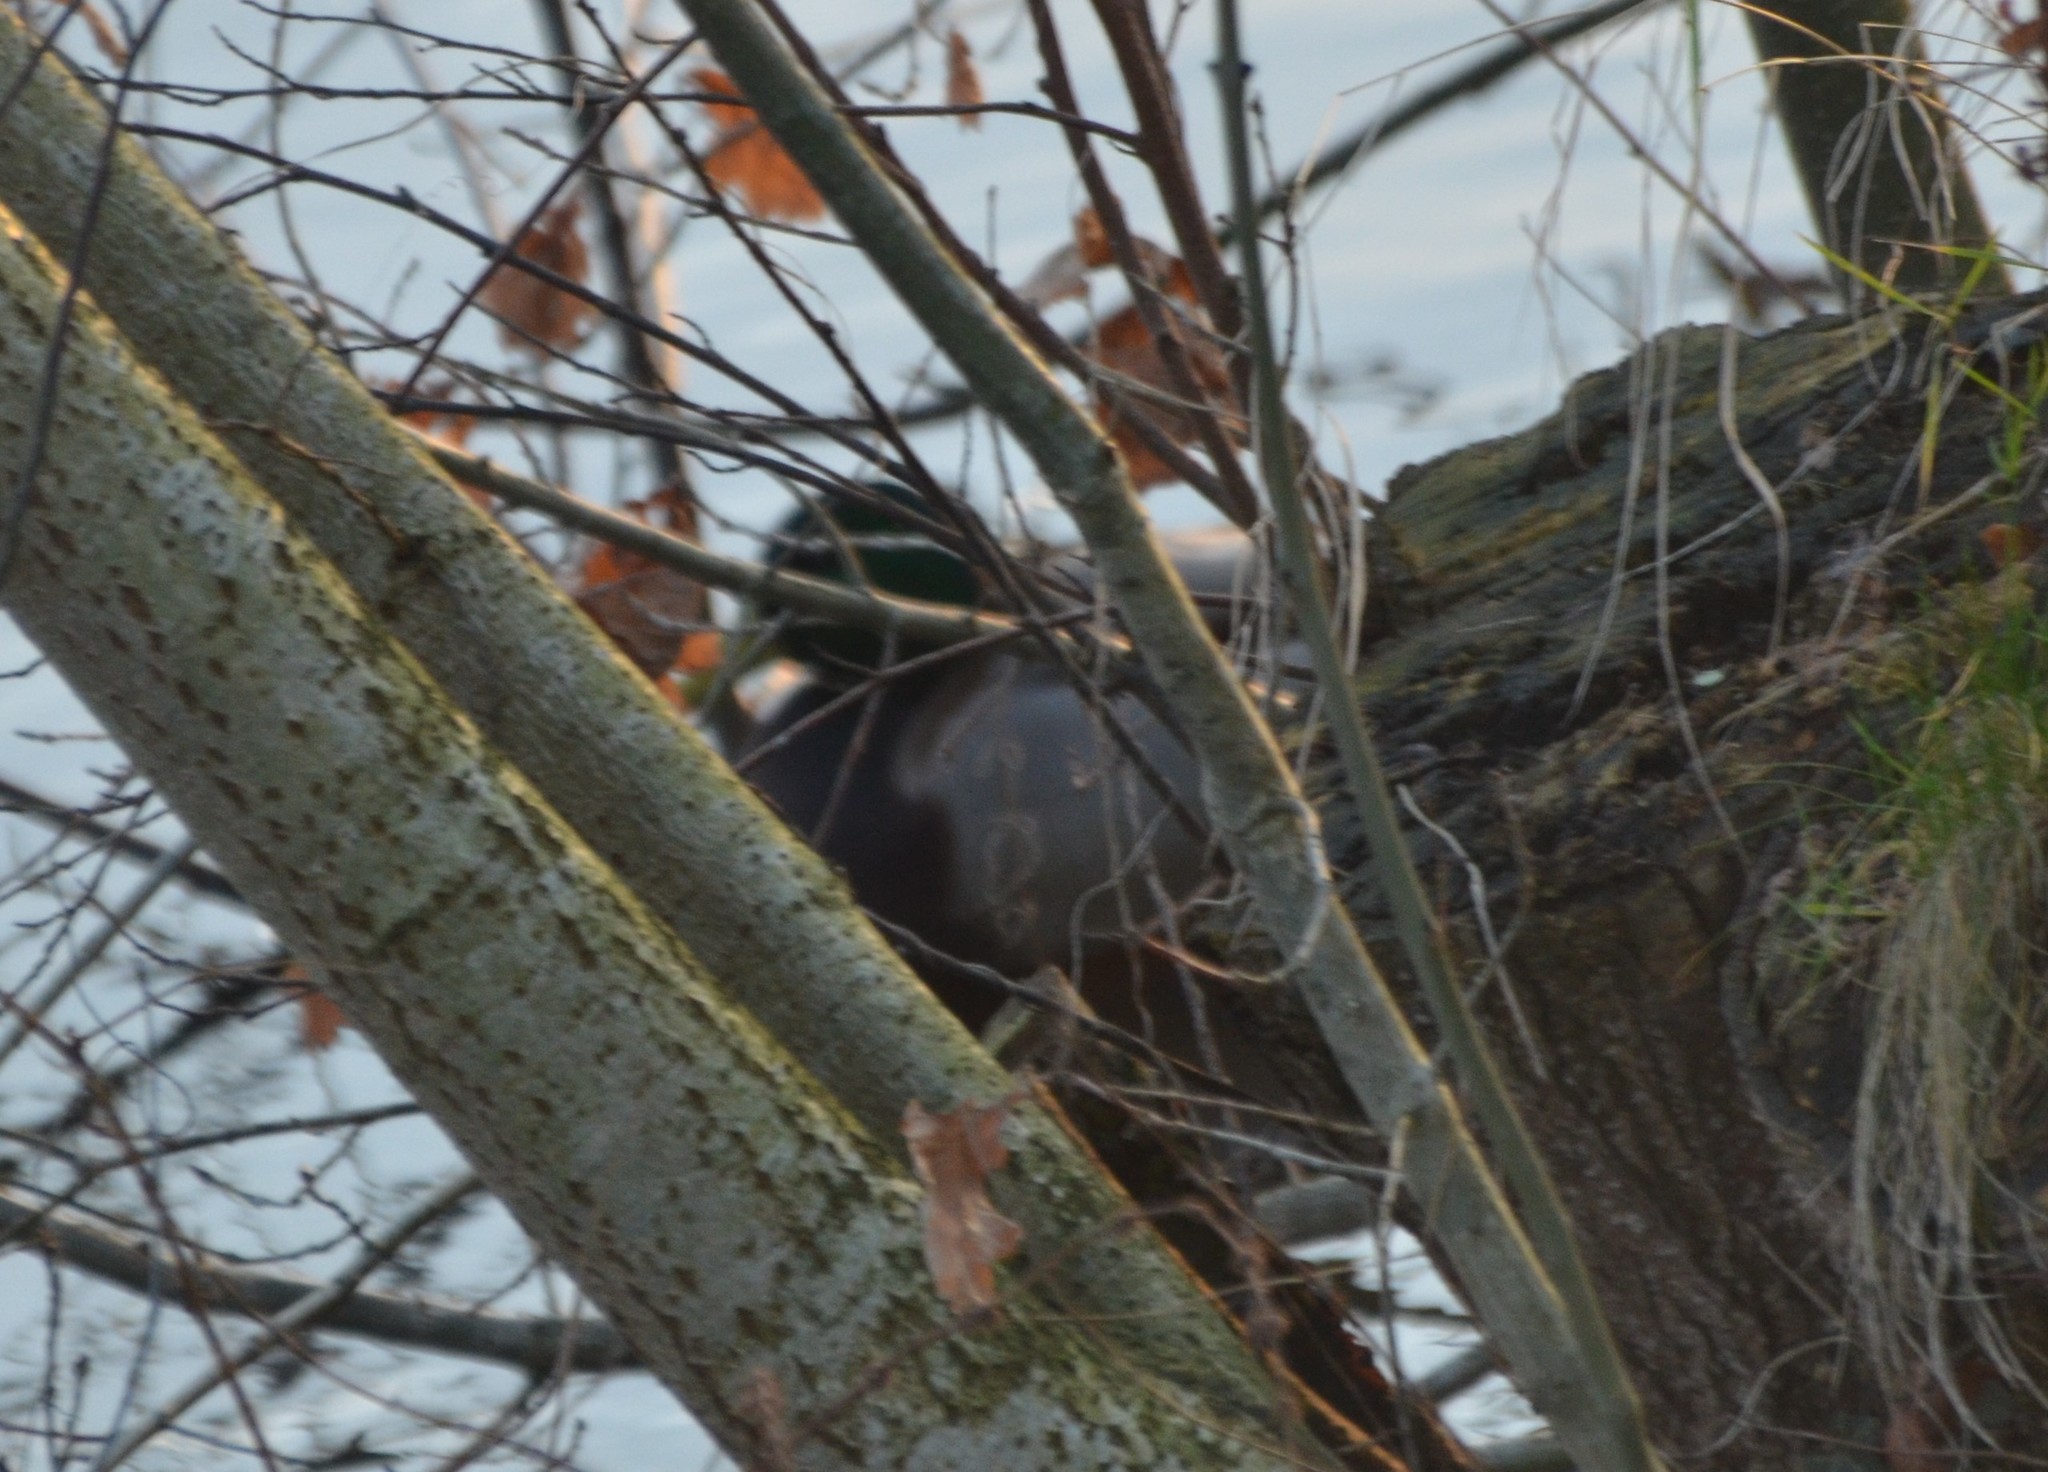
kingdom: Animalia
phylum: Chordata
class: Aves
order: Anseriformes
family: Anatidae
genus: Anas
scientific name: Anas platyrhynchos
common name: Mallard
